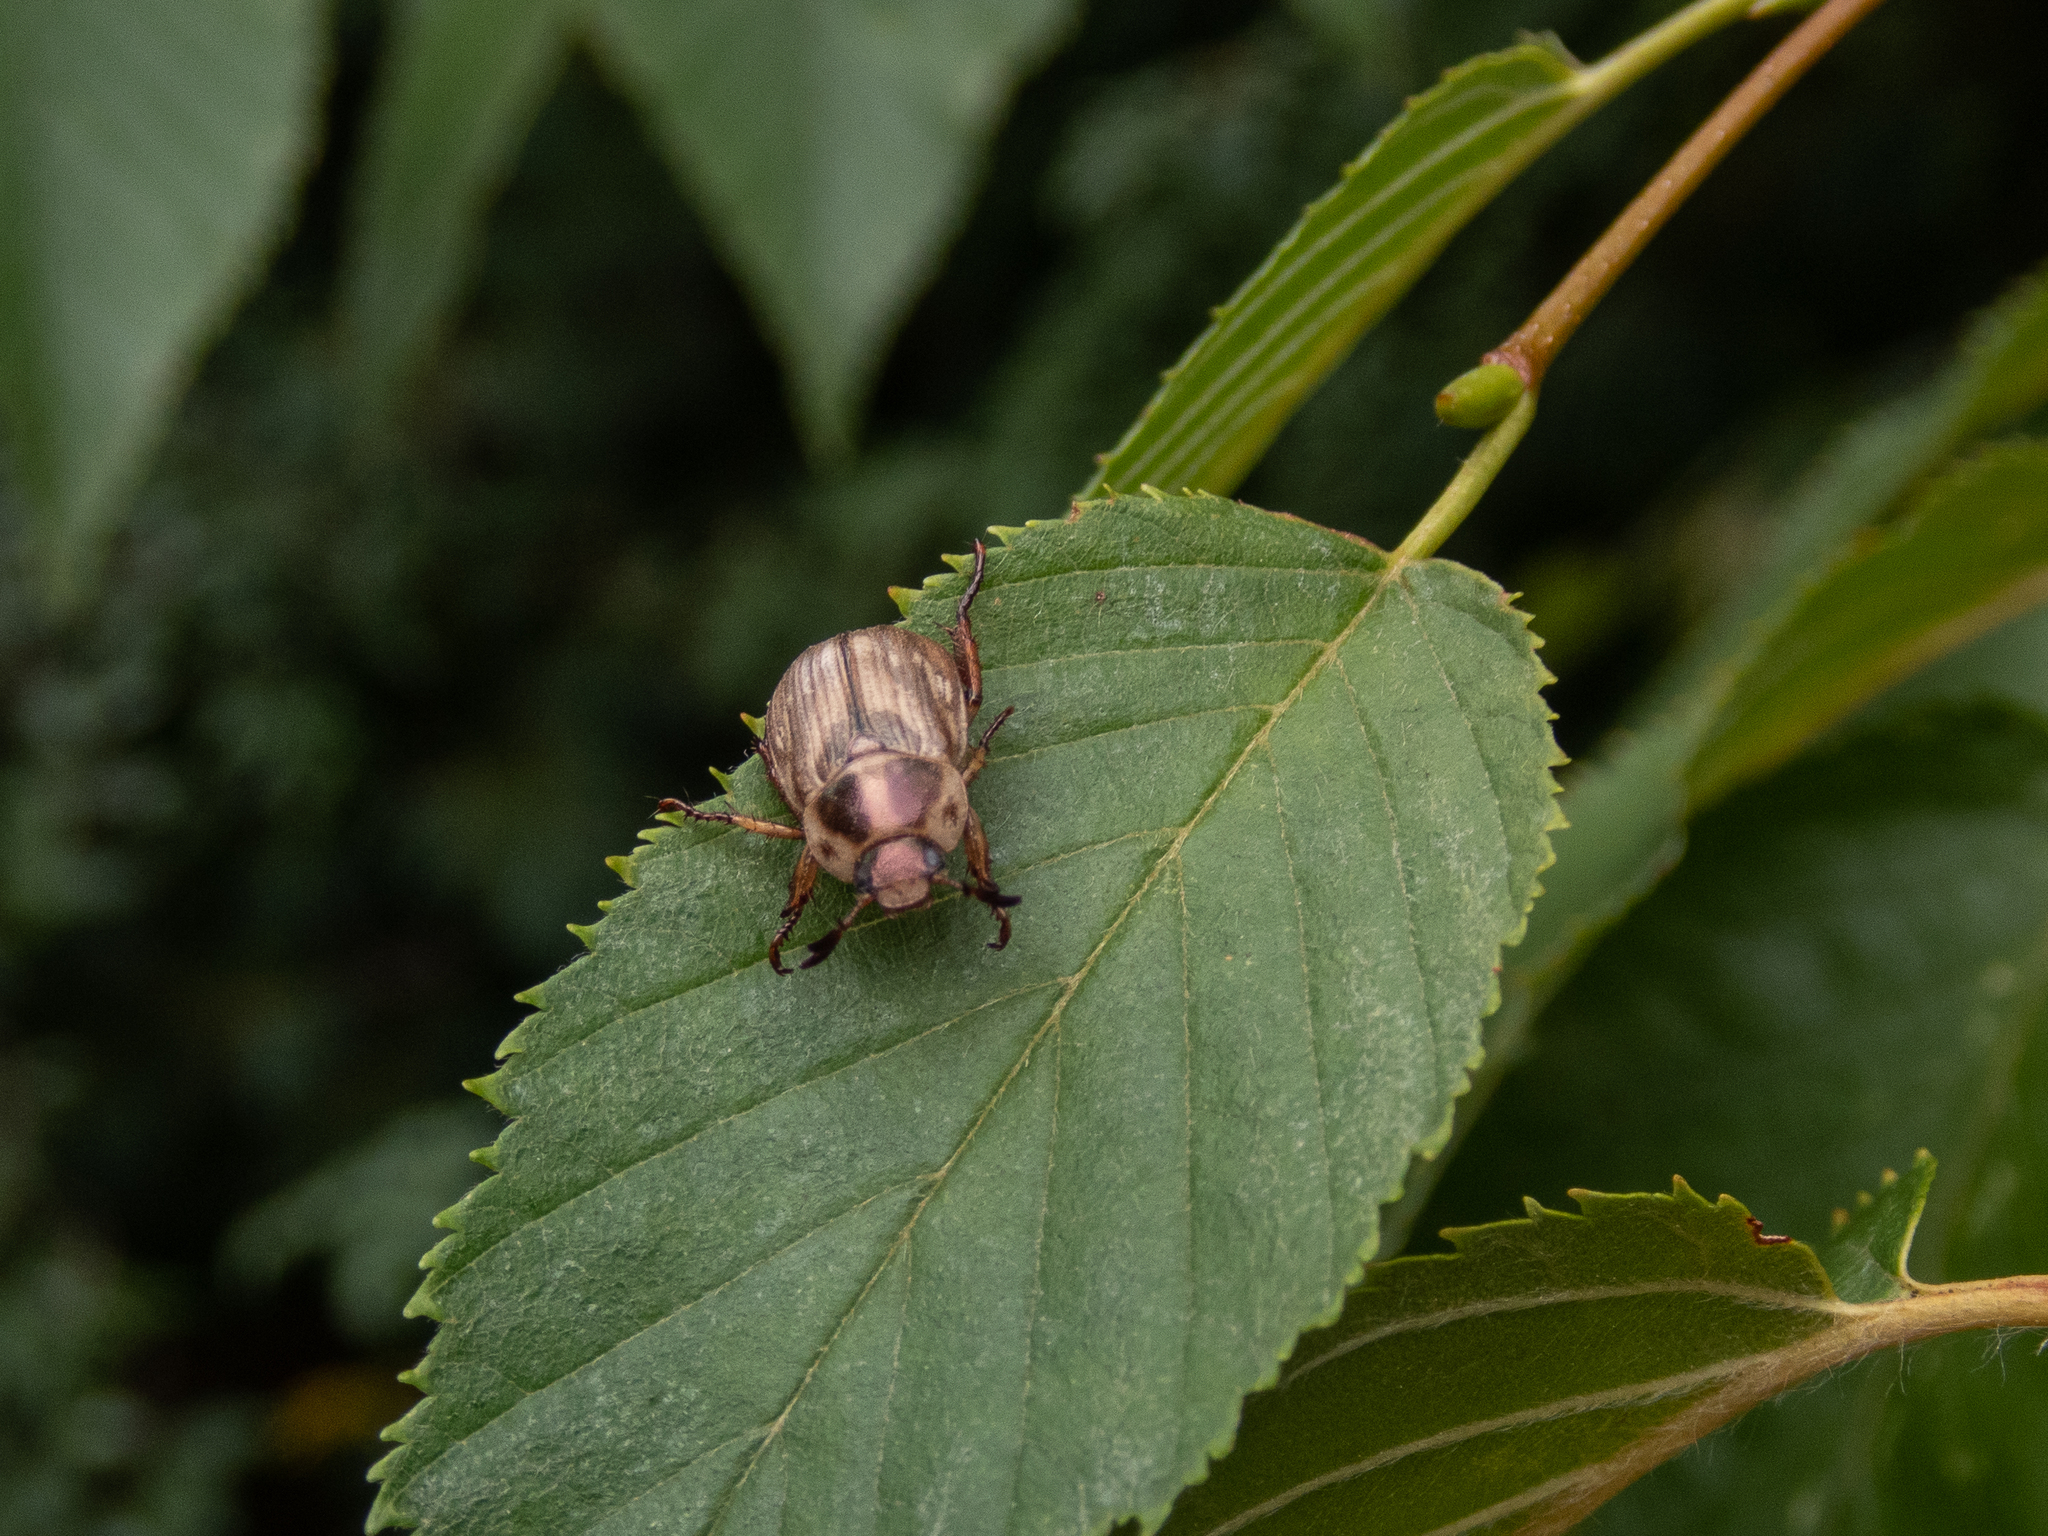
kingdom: Animalia
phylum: Arthropoda
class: Insecta
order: Coleoptera
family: Scarabaeidae
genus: Exomala
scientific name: Exomala orientalis
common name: Oriental beetle
